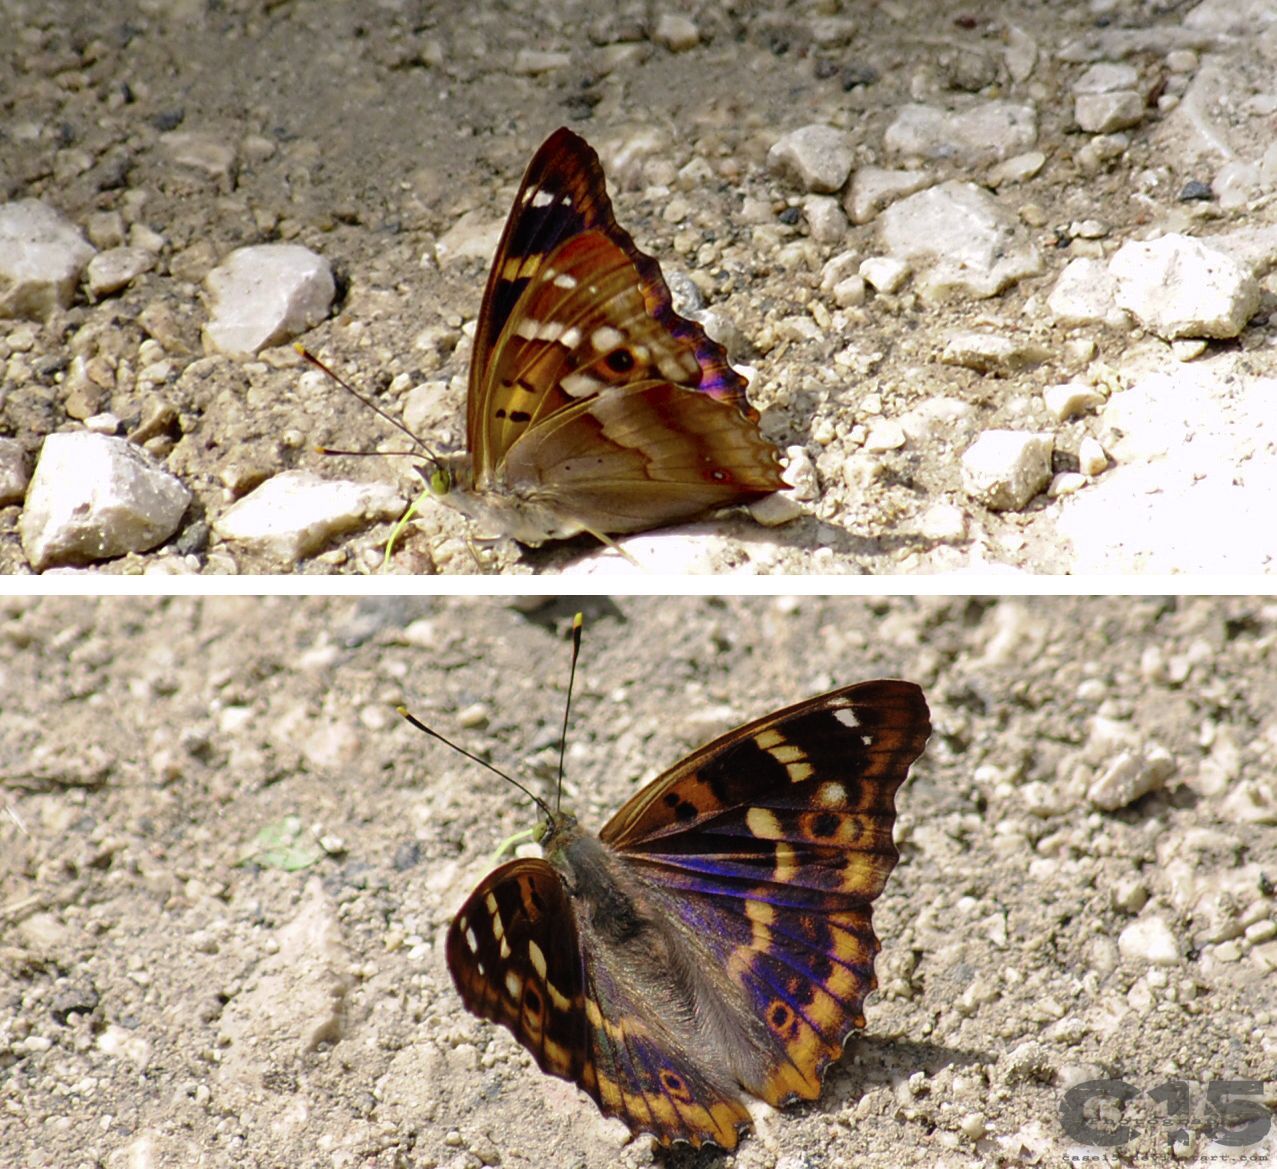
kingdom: Animalia
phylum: Arthropoda
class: Insecta
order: Lepidoptera
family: Nymphalidae
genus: Apatura
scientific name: Apatura ilia
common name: Lesser purple emperor
